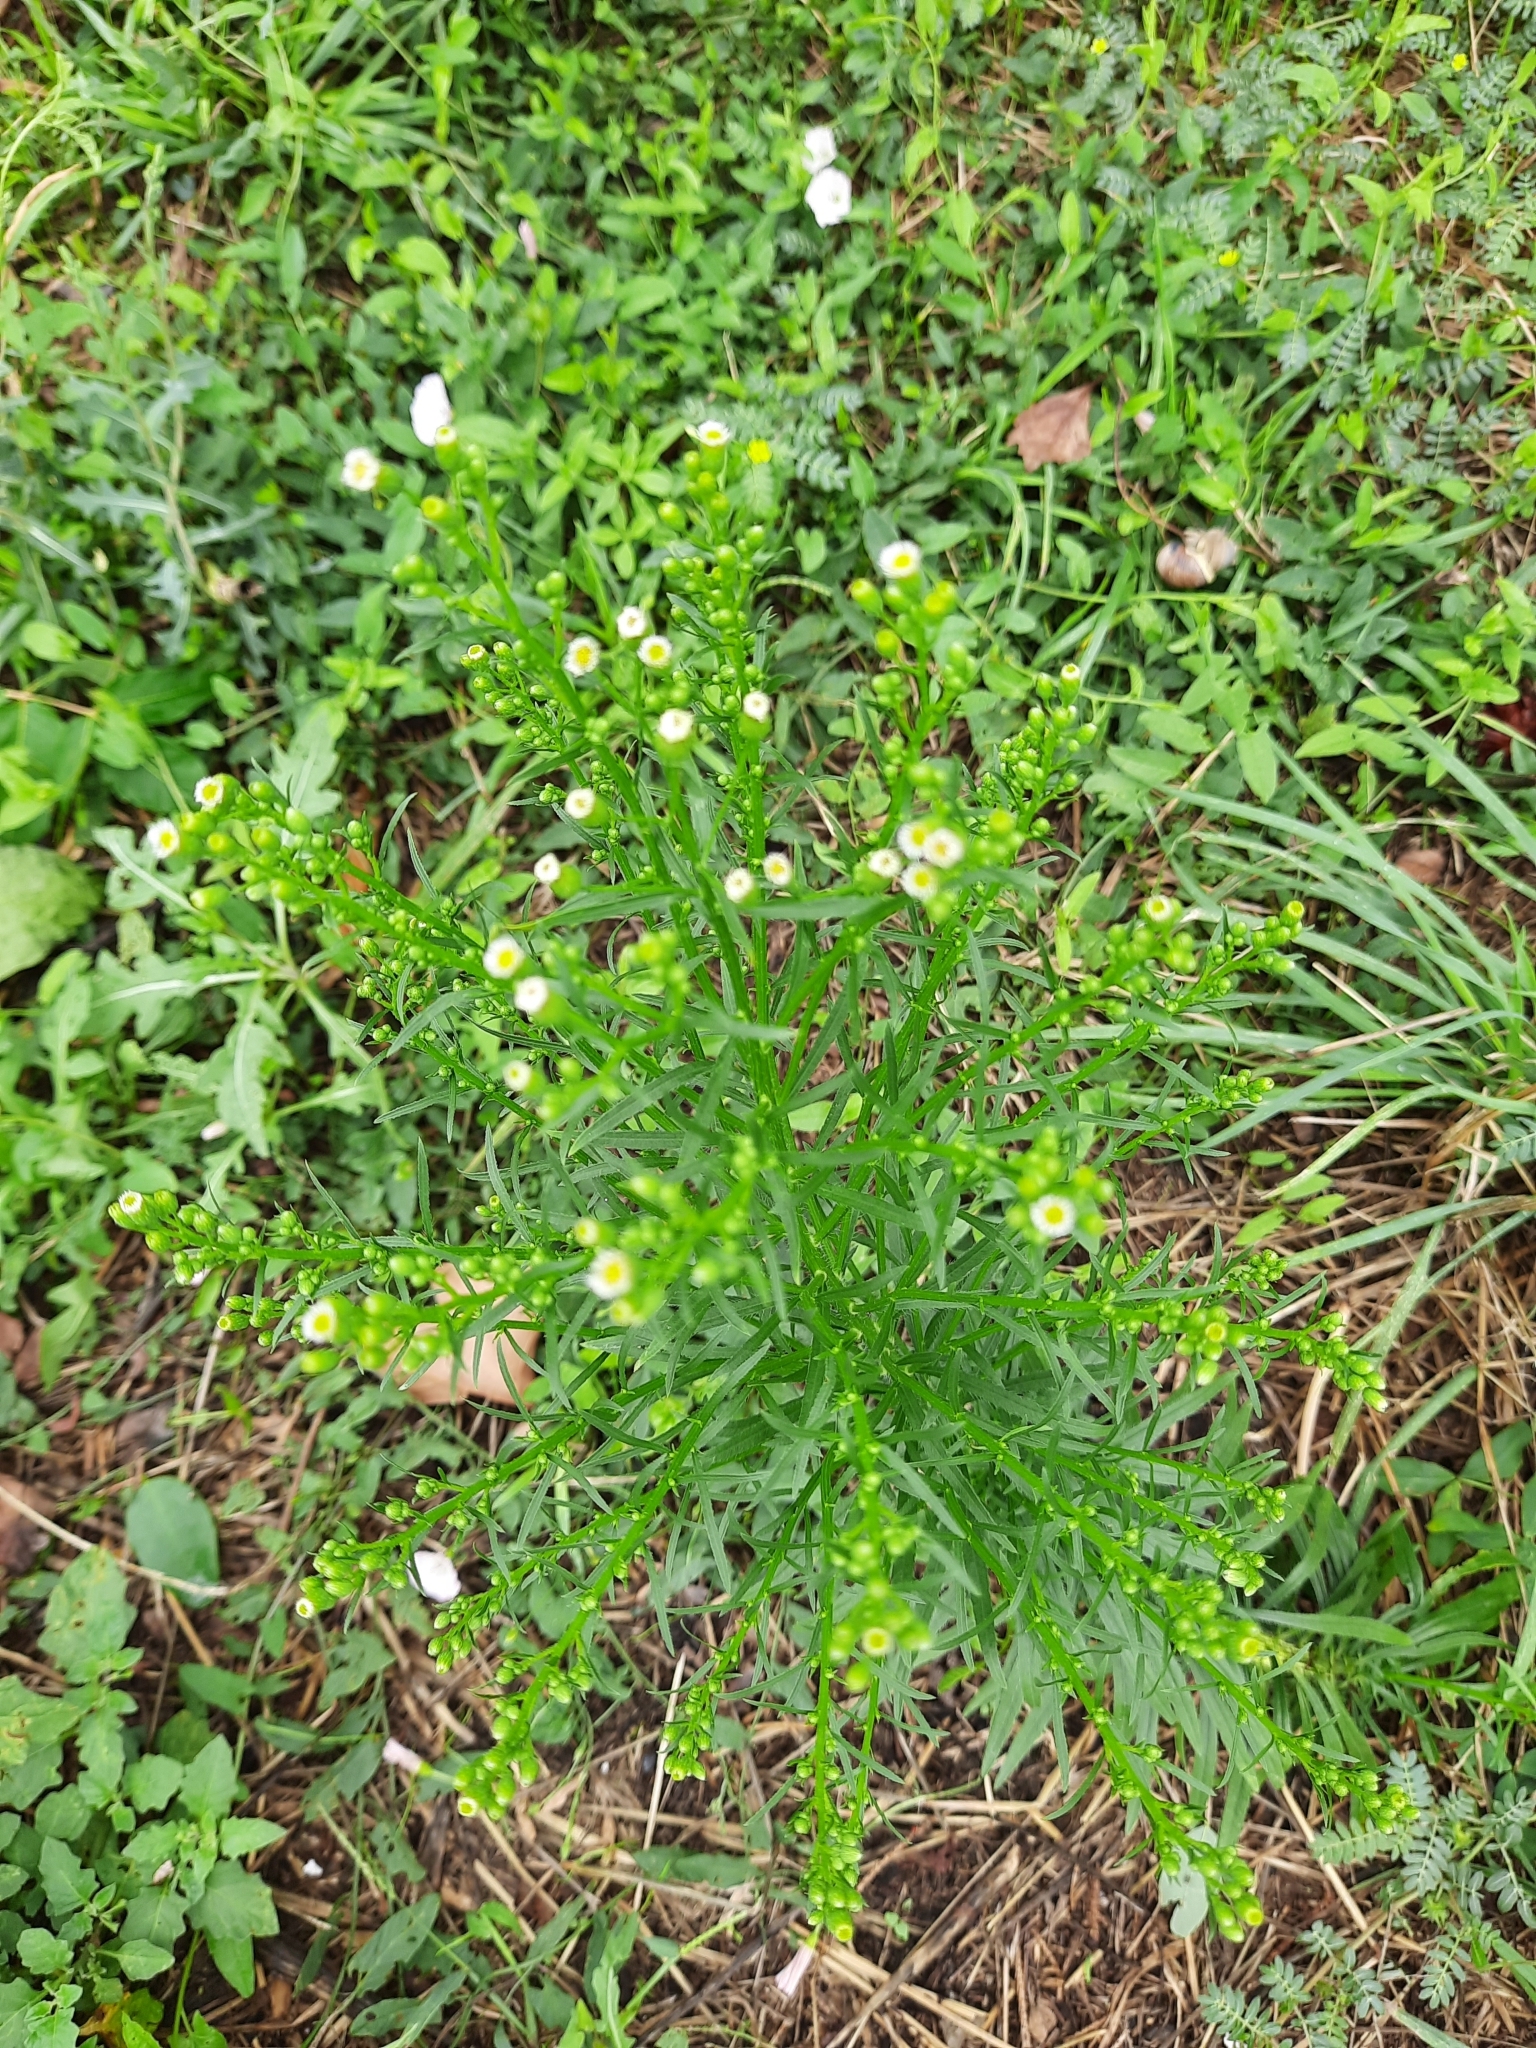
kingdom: Plantae
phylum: Tracheophyta
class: Magnoliopsida
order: Asterales
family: Asteraceae
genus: Erigeron
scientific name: Erigeron canadensis
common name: Canadian fleabane
